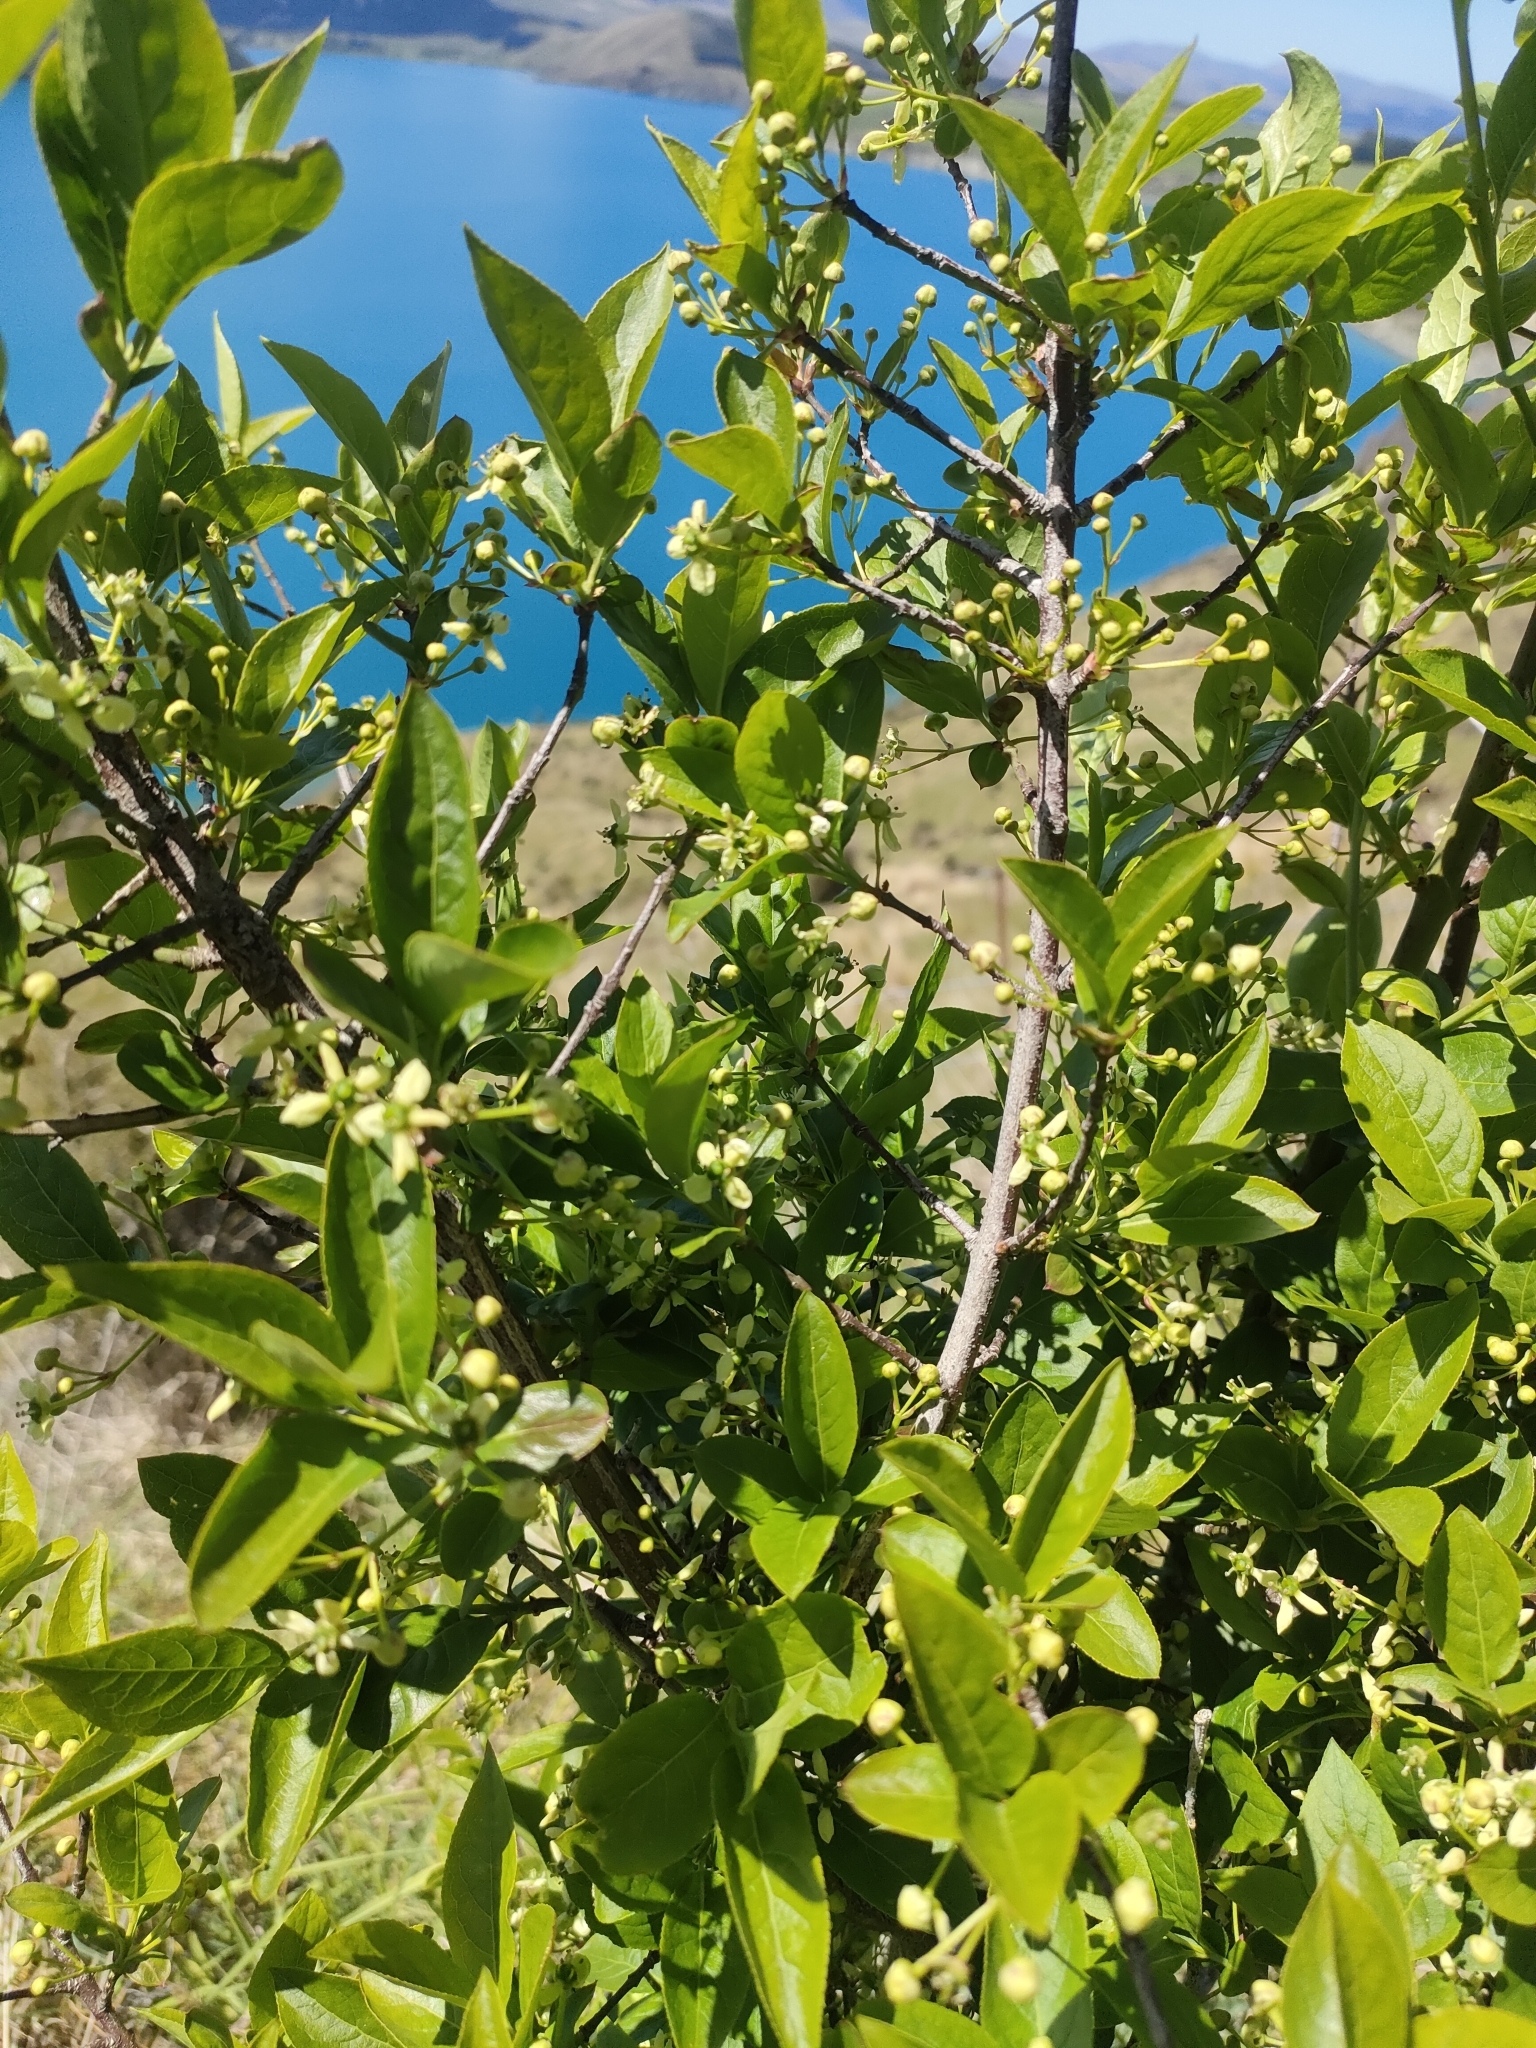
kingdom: Plantae
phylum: Tracheophyta
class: Magnoliopsida
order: Celastrales
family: Celastraceae
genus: Euonymus
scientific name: Euonymus europaeus
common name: Spindle
